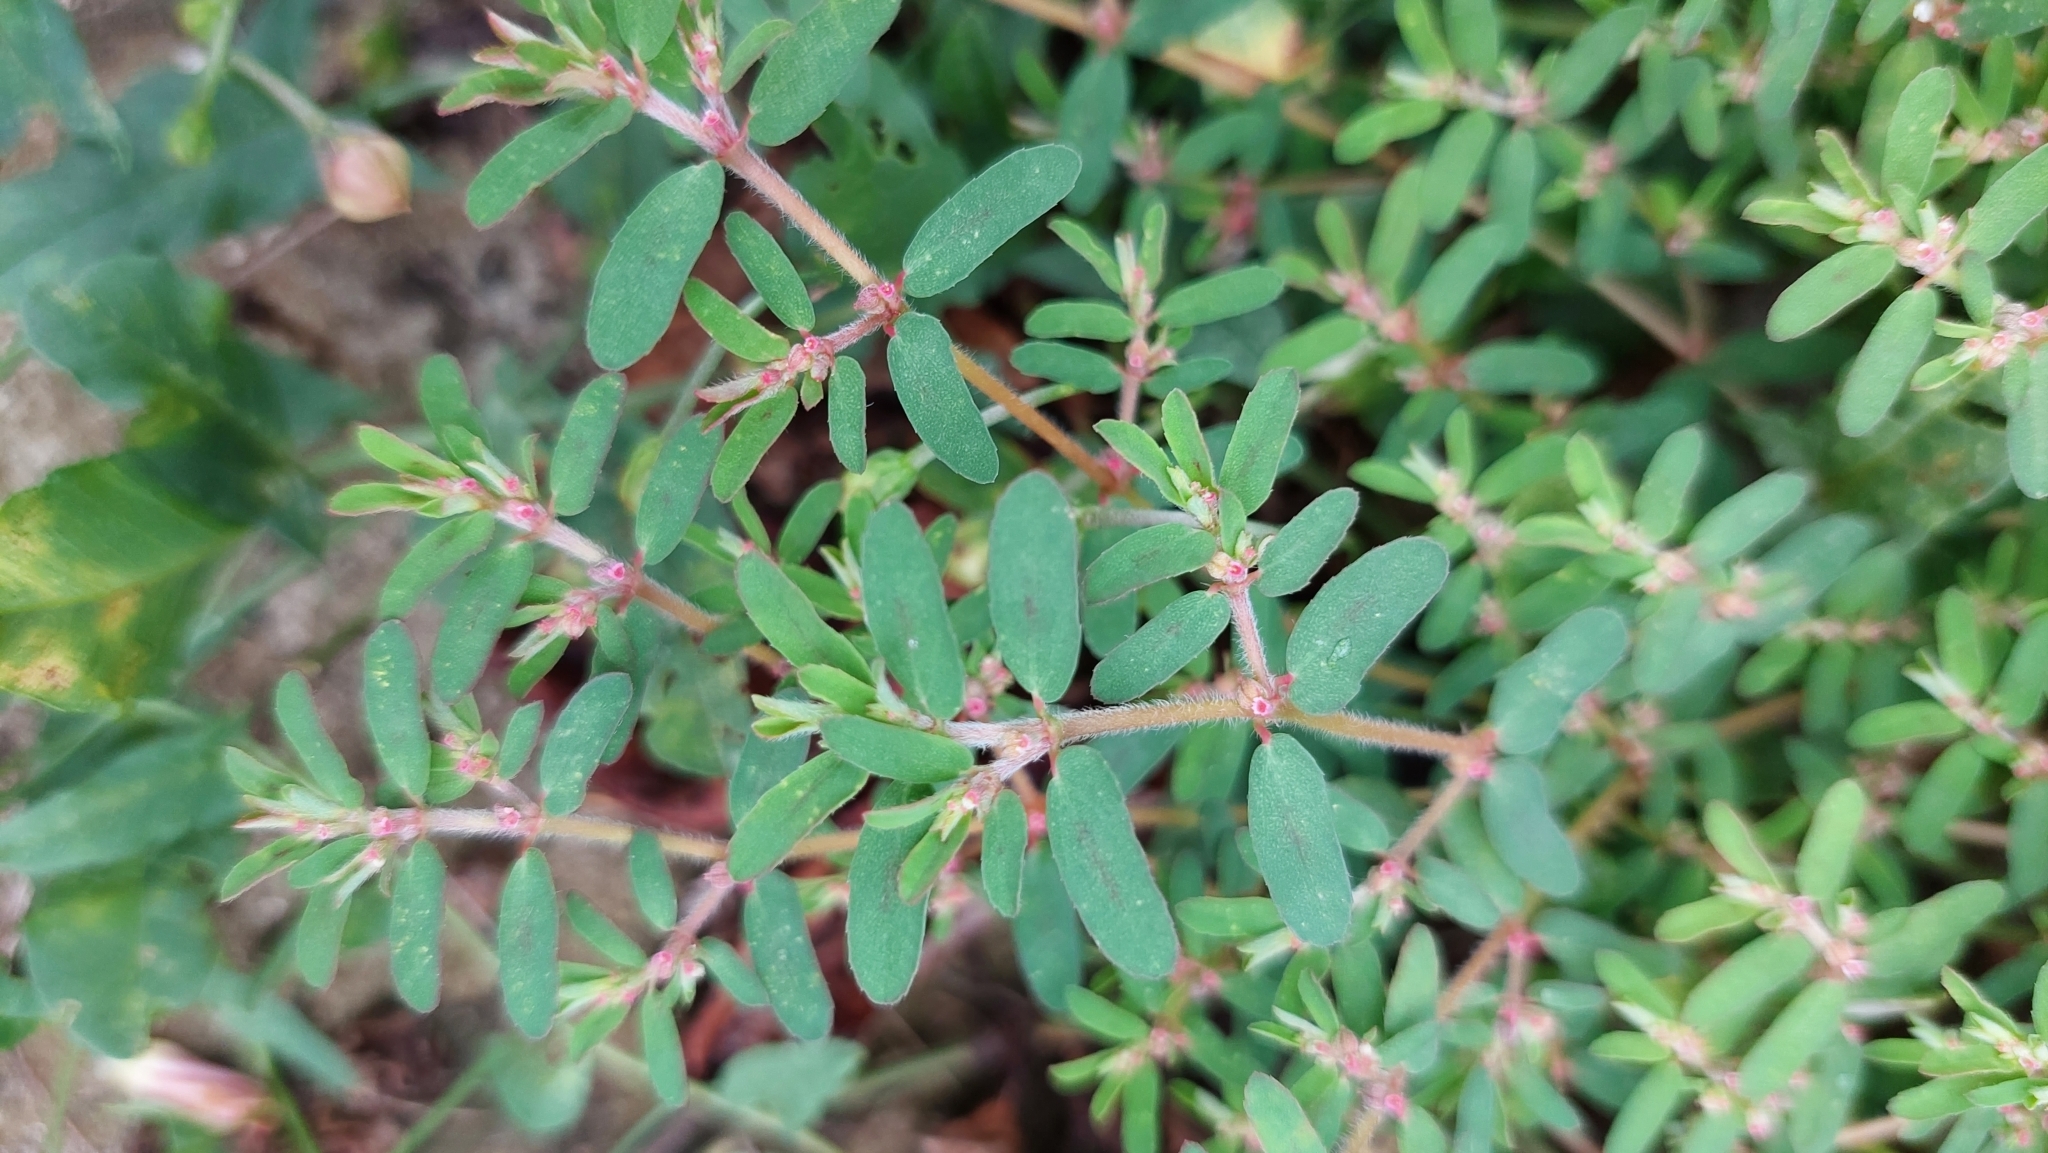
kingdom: Plantae
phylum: Tracheophyta
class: Magnoliopsida
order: Malpighiales
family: Euphorbiaceae
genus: Euphorbia
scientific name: Euphorbia maculata
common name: Spotted spurge
